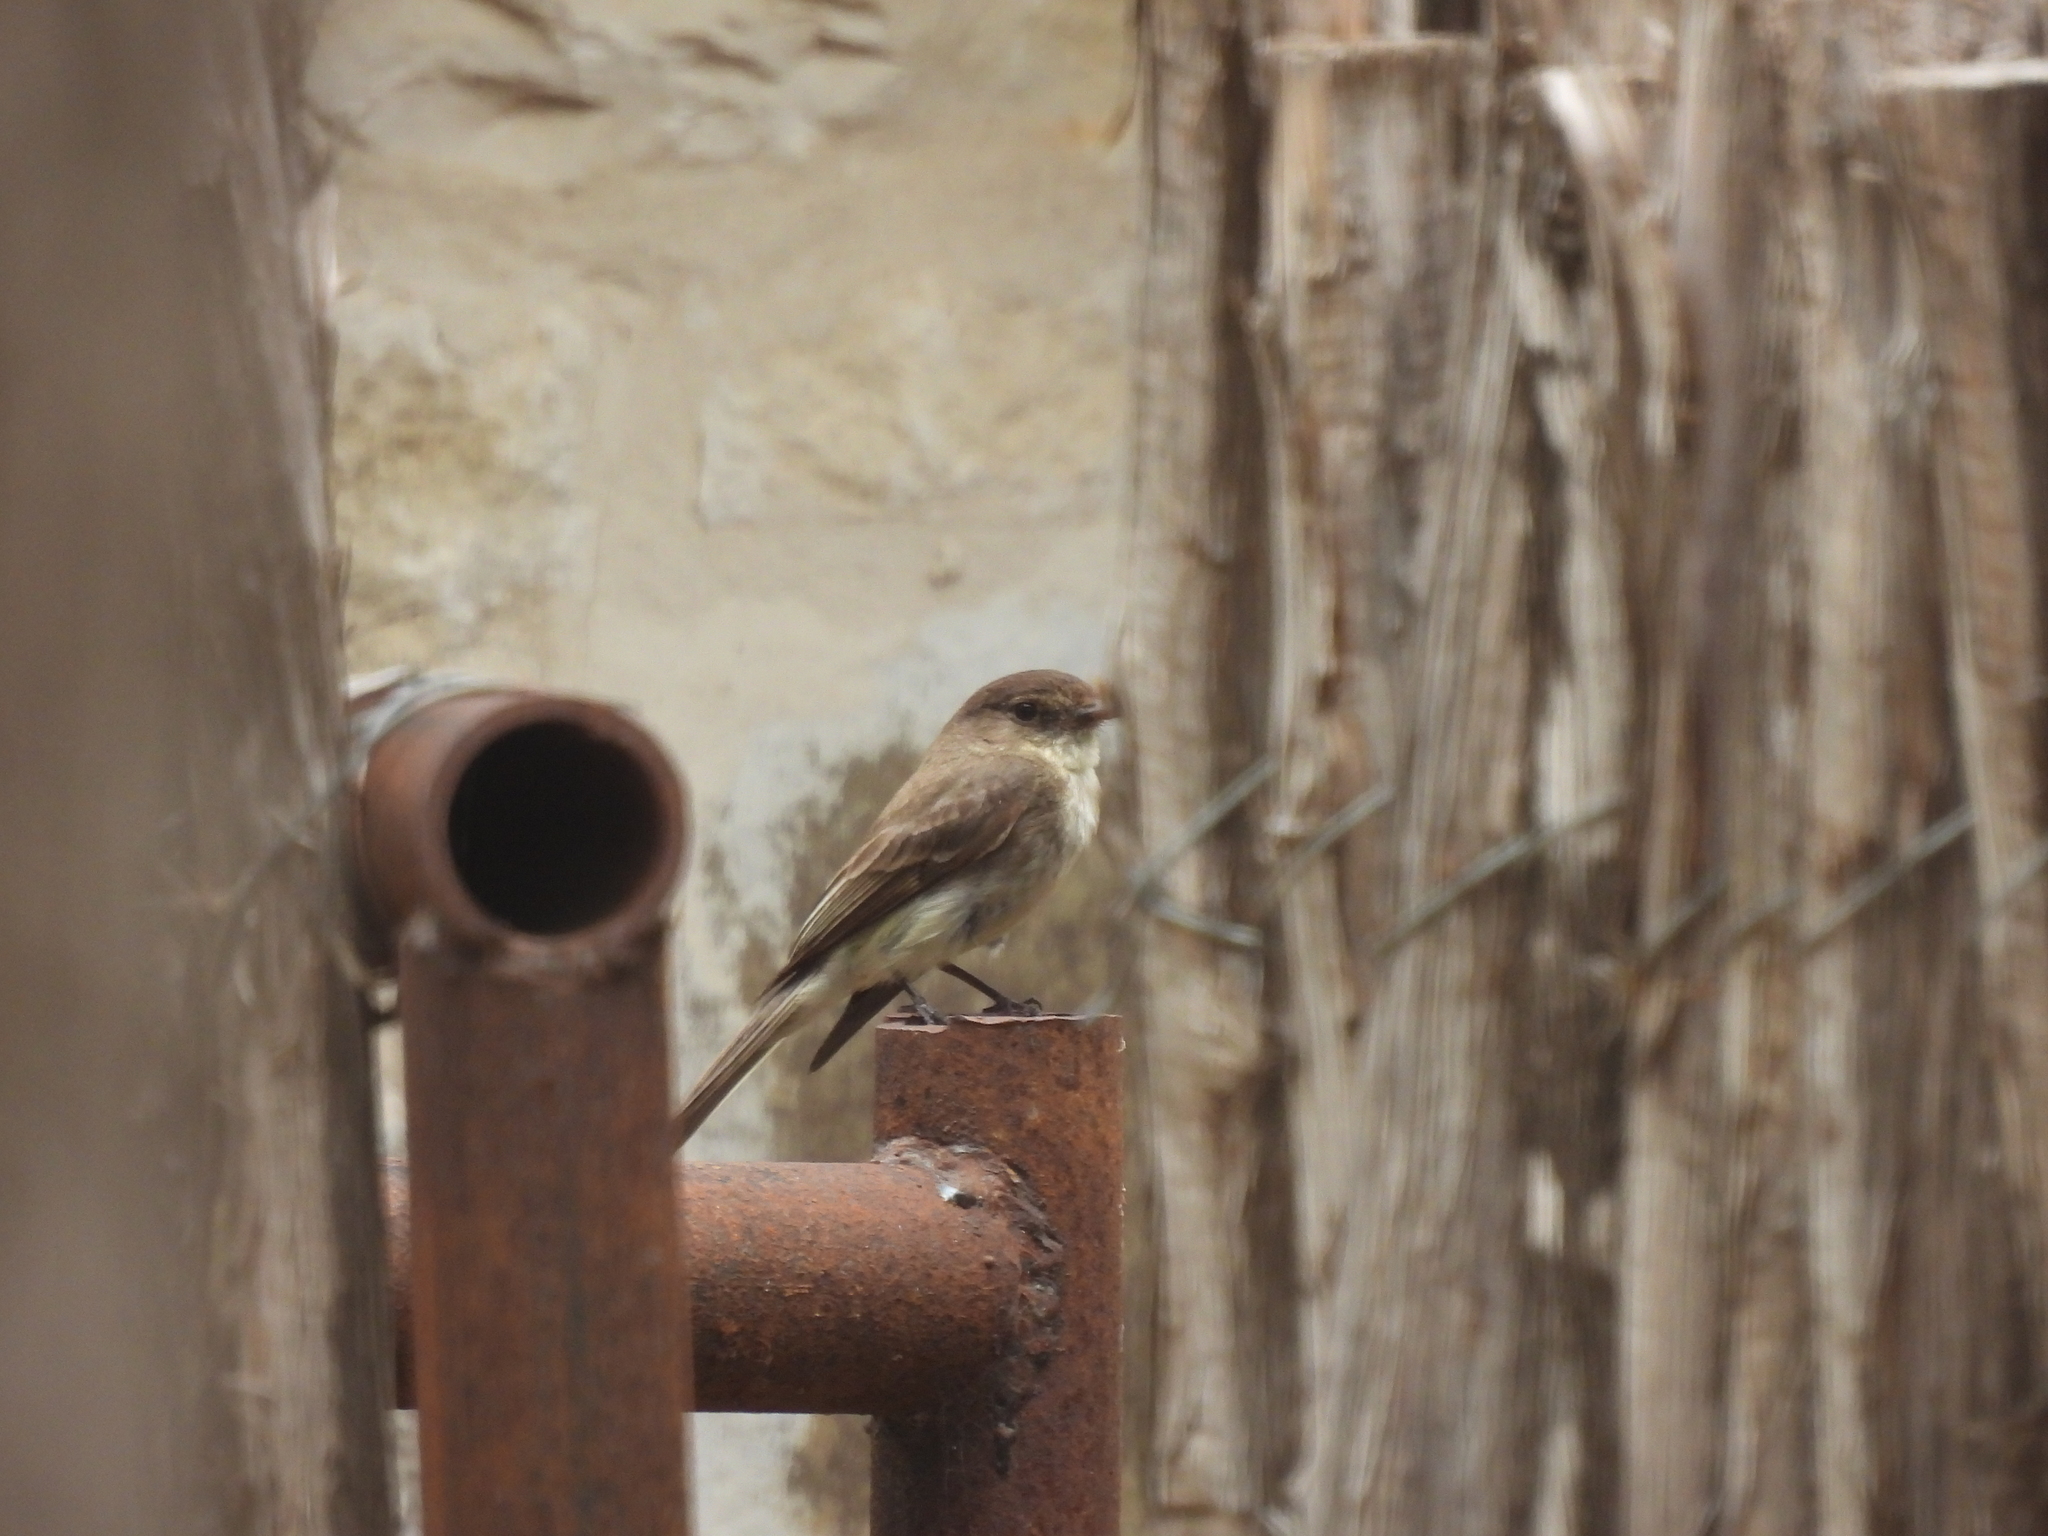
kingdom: Animalia
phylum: Chordata
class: Aves
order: Passeriformes
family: Tyrannidae
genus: Sayornis
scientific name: Sayornis phoebe
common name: Eastern phoebe
